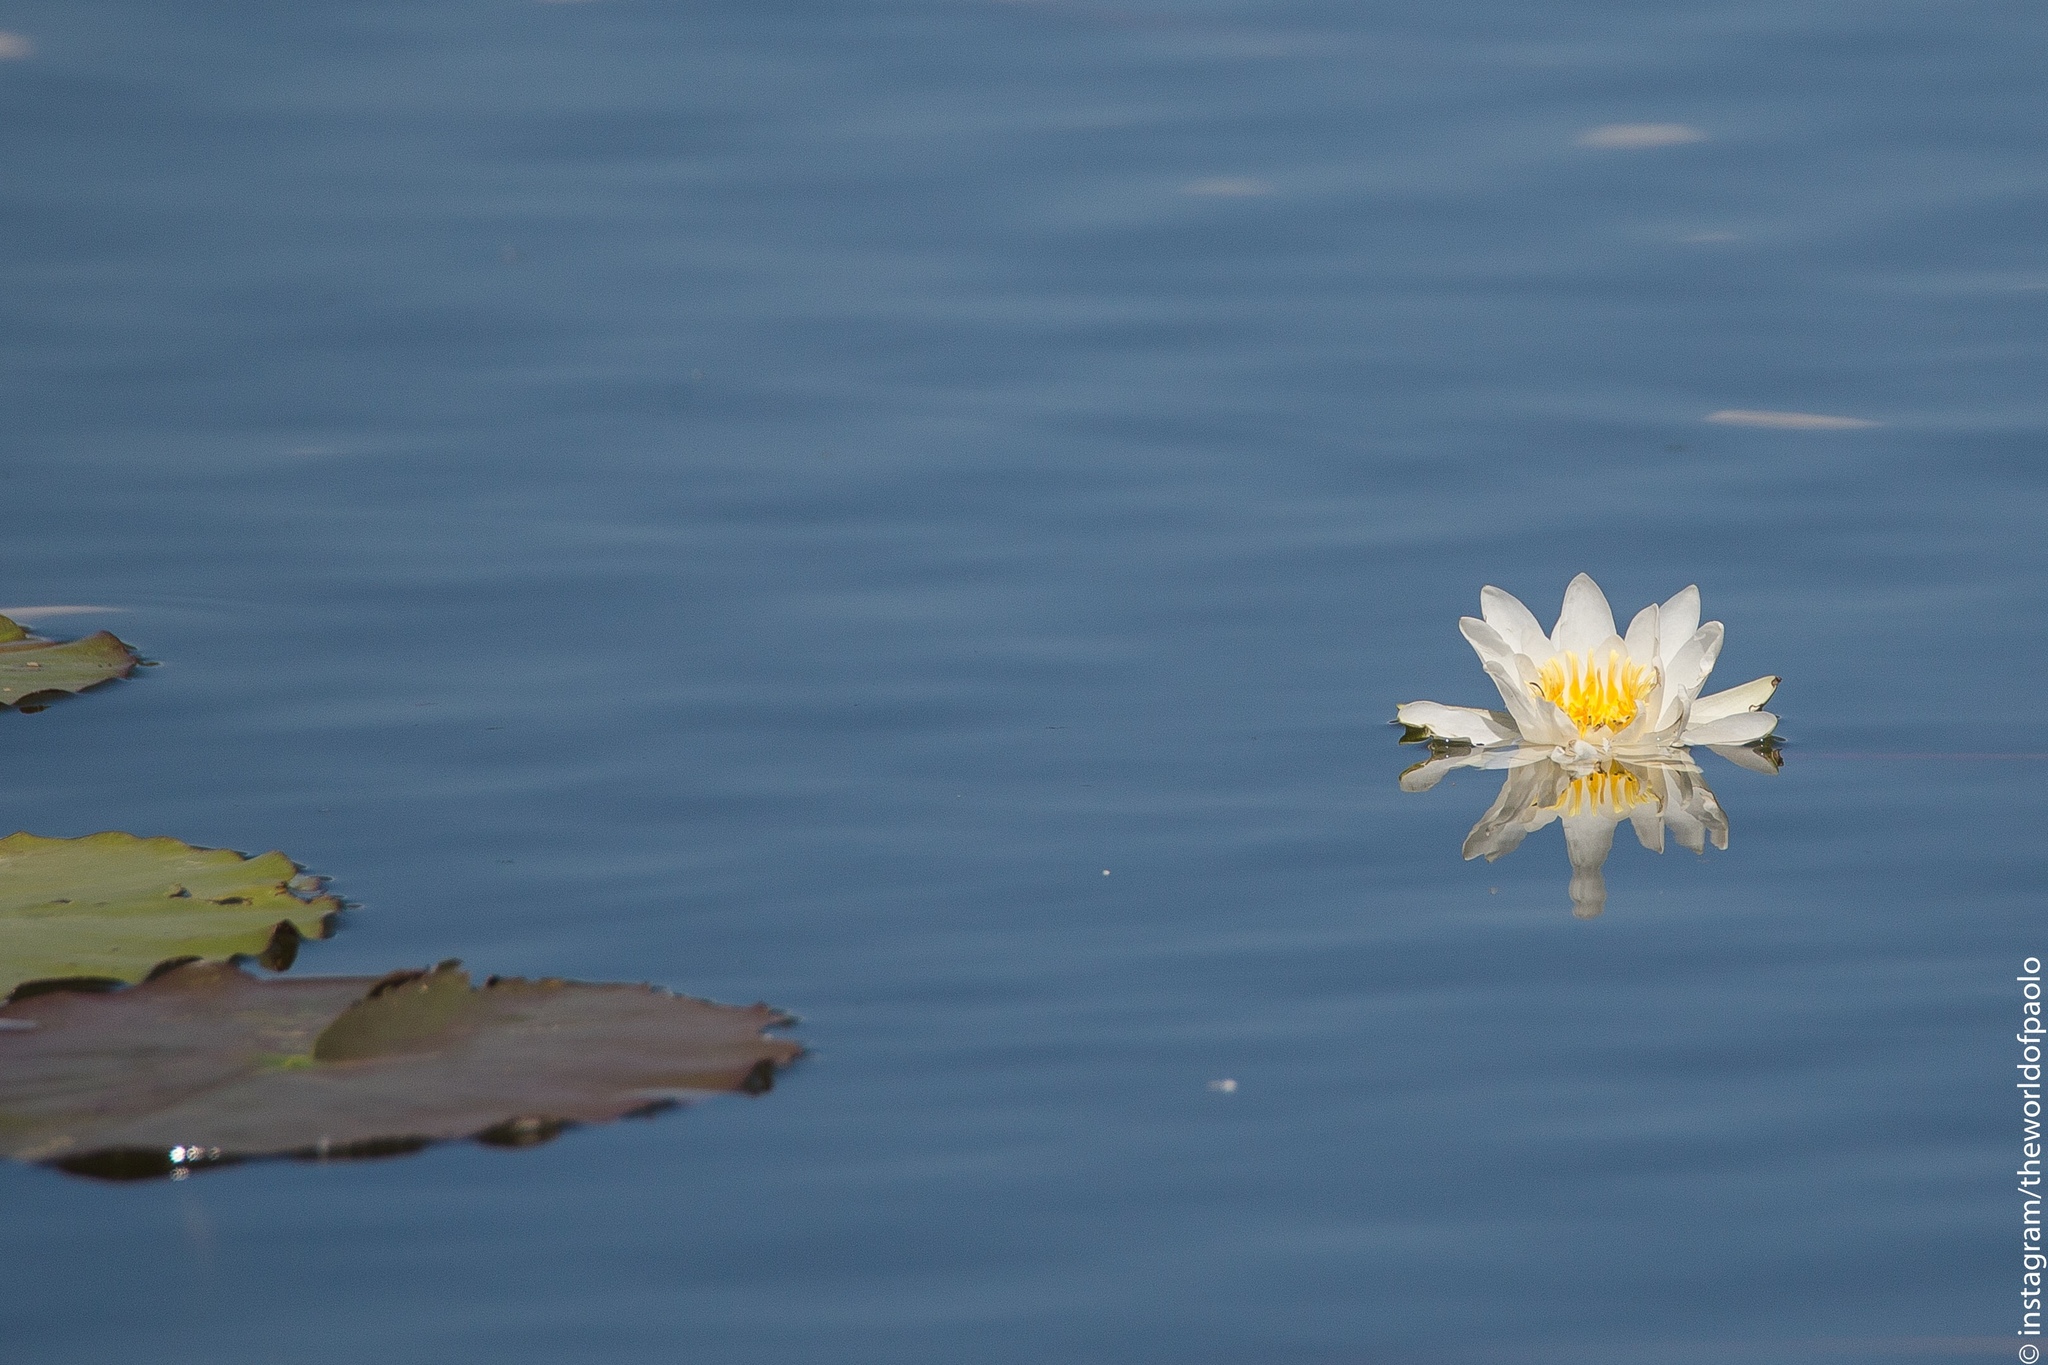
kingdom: Plantae
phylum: Tracheophyta
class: Magnoliopsida
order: Nymphaeales
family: Nymphaeaceae
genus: Nymphaea
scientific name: Nymphaea alba
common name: White water-lily
